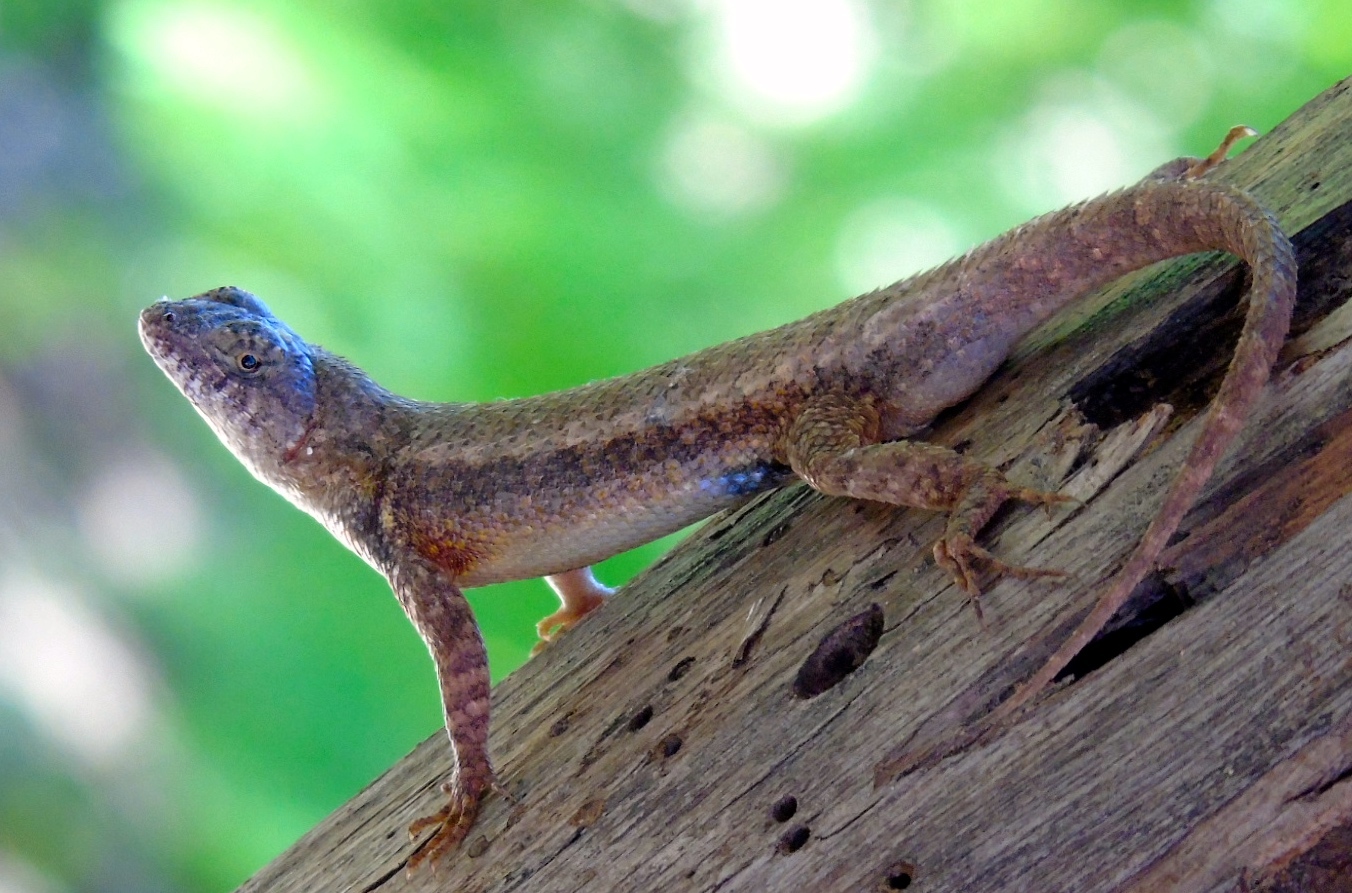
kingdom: Animalia
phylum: Chordata
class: Squamata
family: Phrynosomatidae
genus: Sceloporus
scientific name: Sceloporus nelsoni
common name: Nelson's spiny lizard
